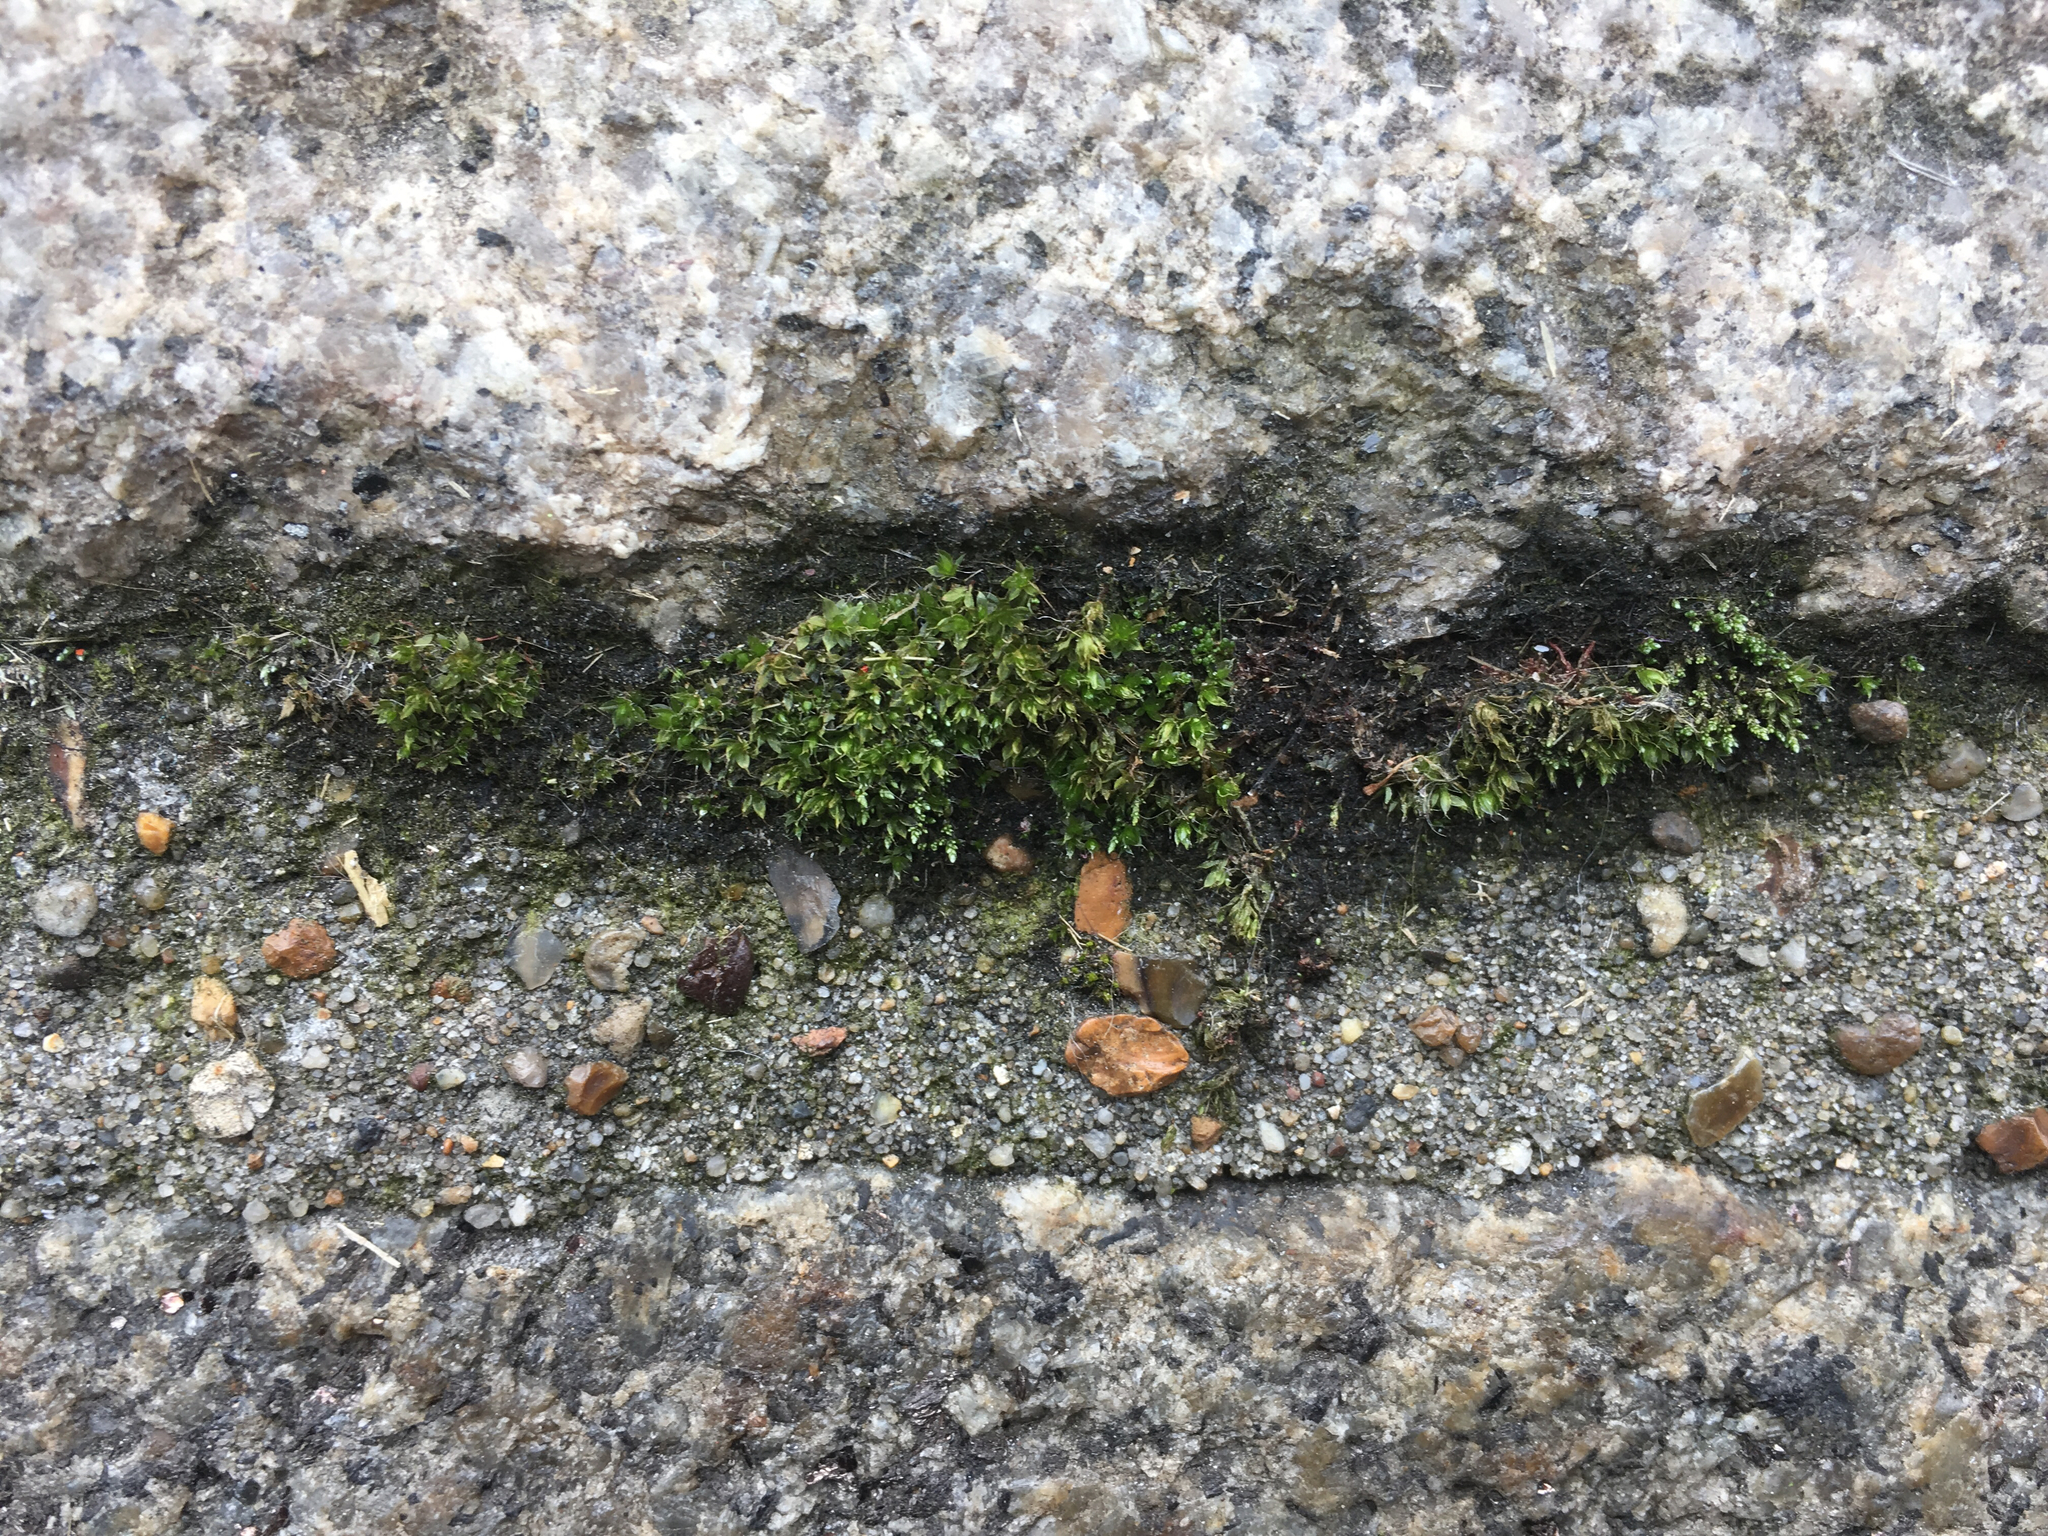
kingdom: Plantae
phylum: Bryophyta
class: Bryopsida
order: Bryales
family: Bryaceae
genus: Bryum
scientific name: Bryum argenteum
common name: Silver-moss
